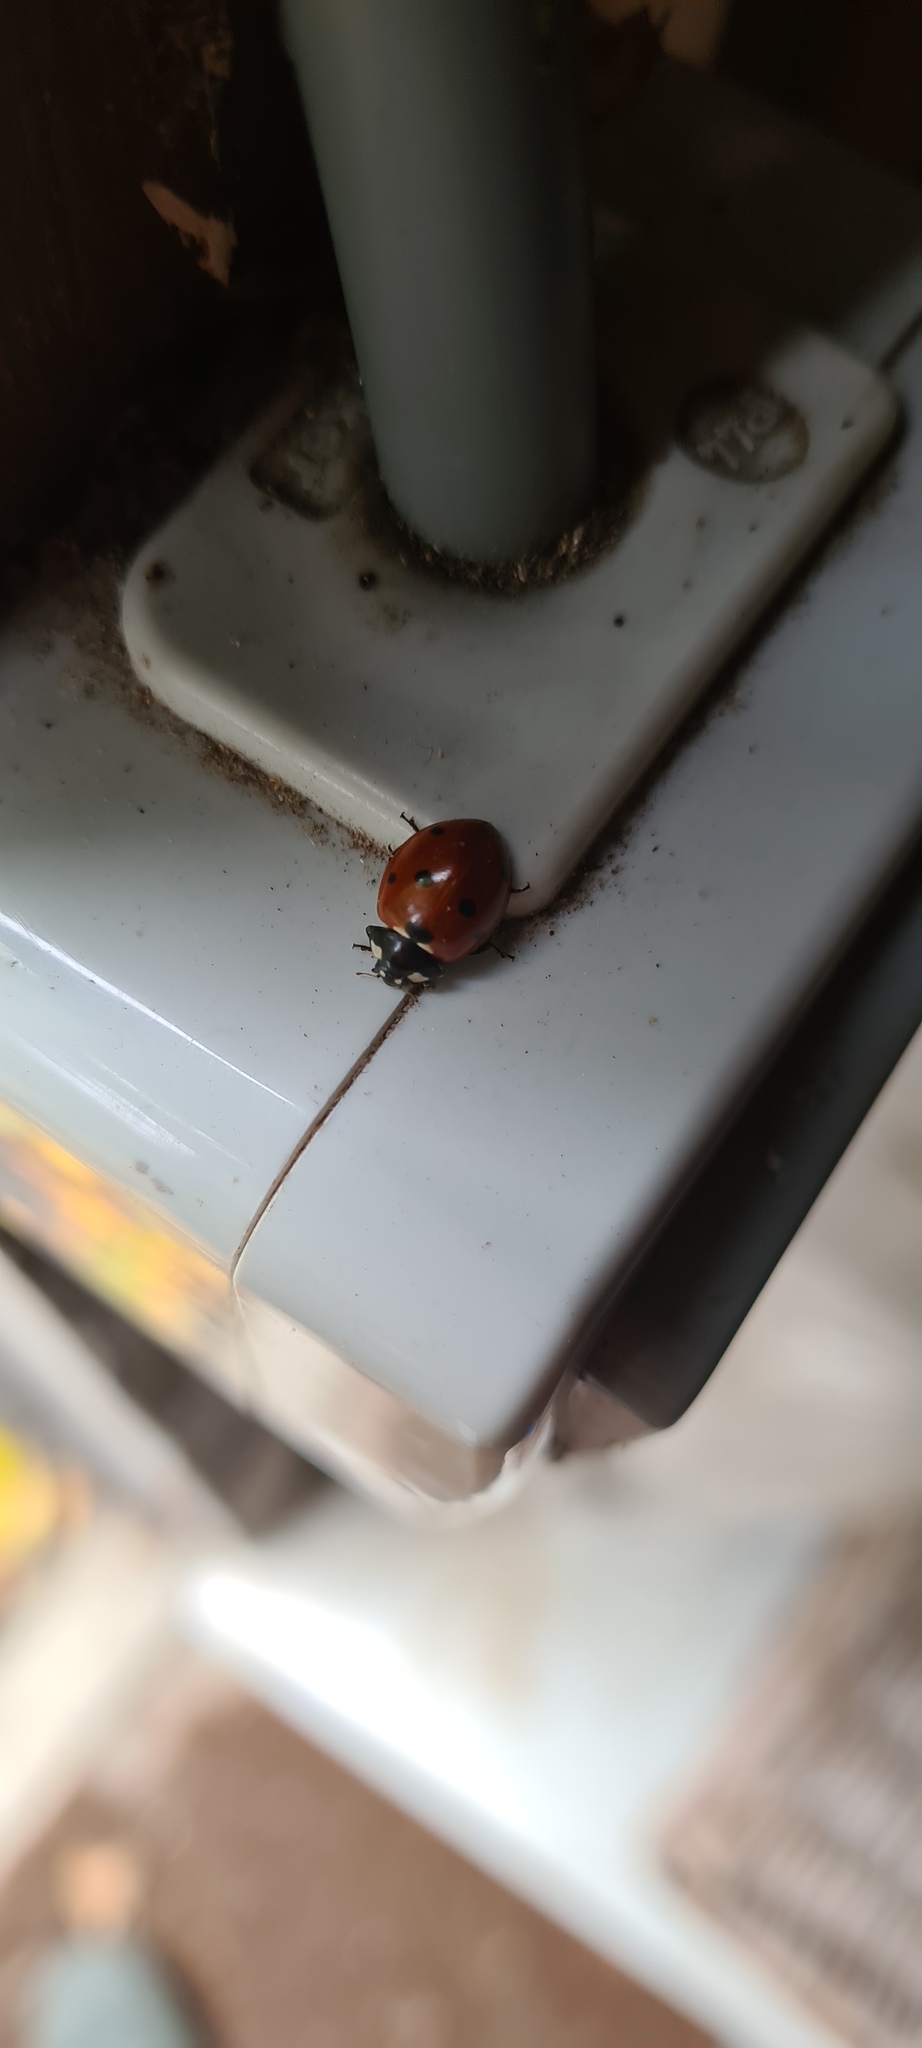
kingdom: Animalia
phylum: Arthropoda
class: Insecta
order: Coleoptera
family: Coccinellidae
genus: Coccinella
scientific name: Coccinella septempunctata
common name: Sevenspotted lady beetle
